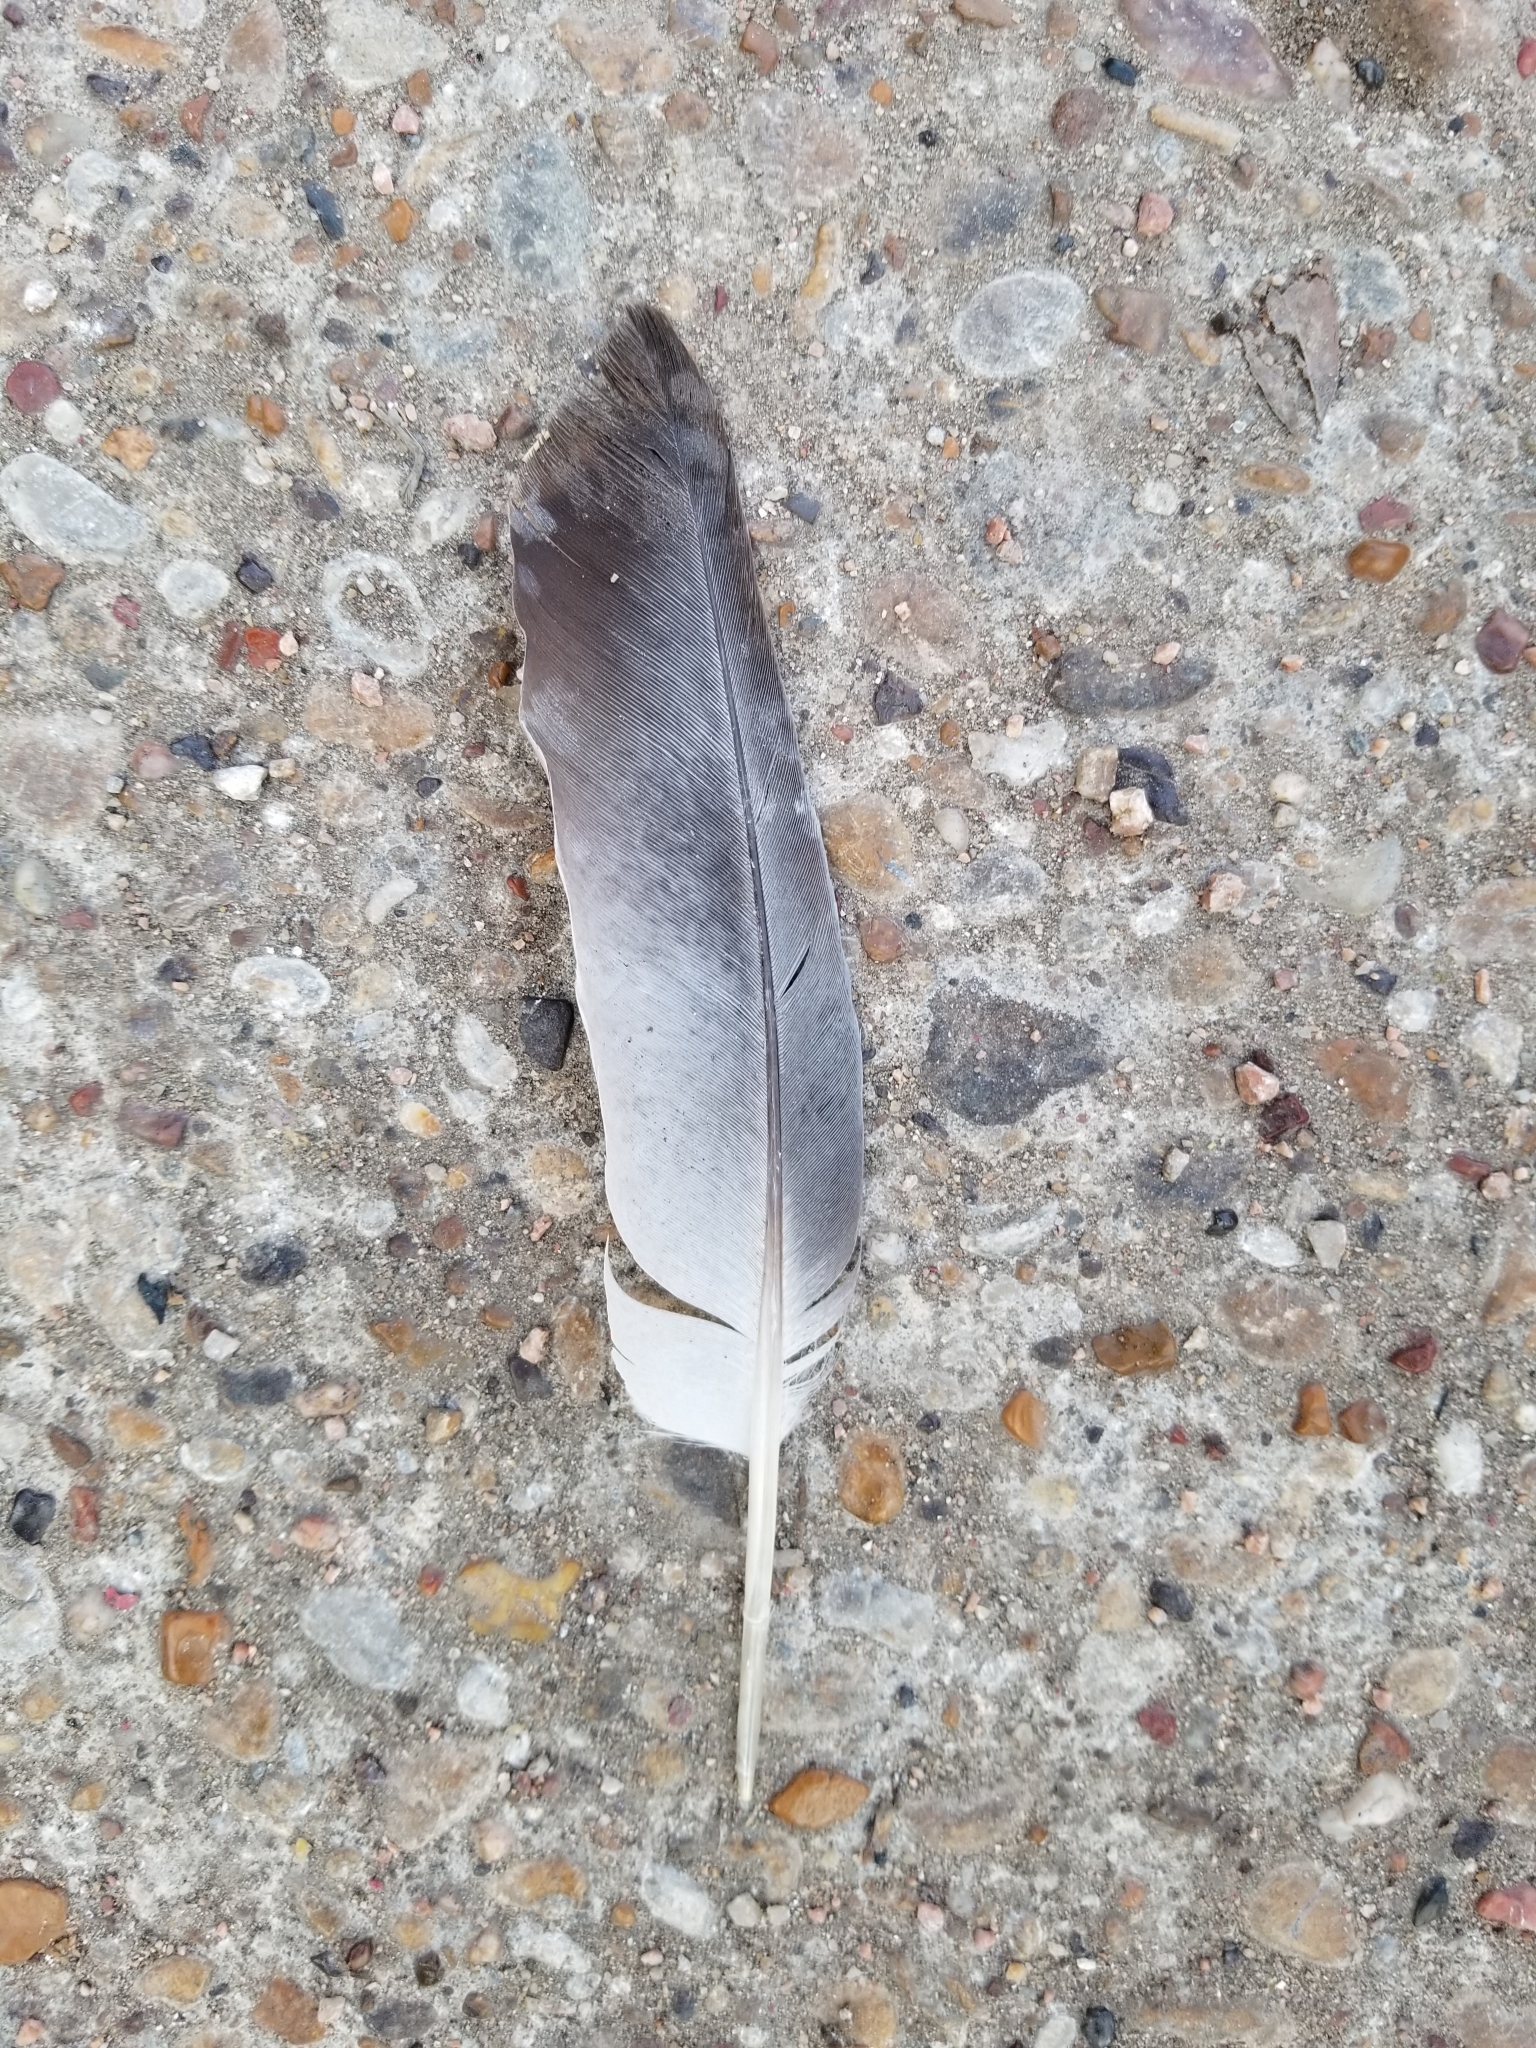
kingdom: Animalia
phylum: Chordata
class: Aves
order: Columbiformes
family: Columbidae
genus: Columba
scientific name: Columba livia
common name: Rock pigeon
